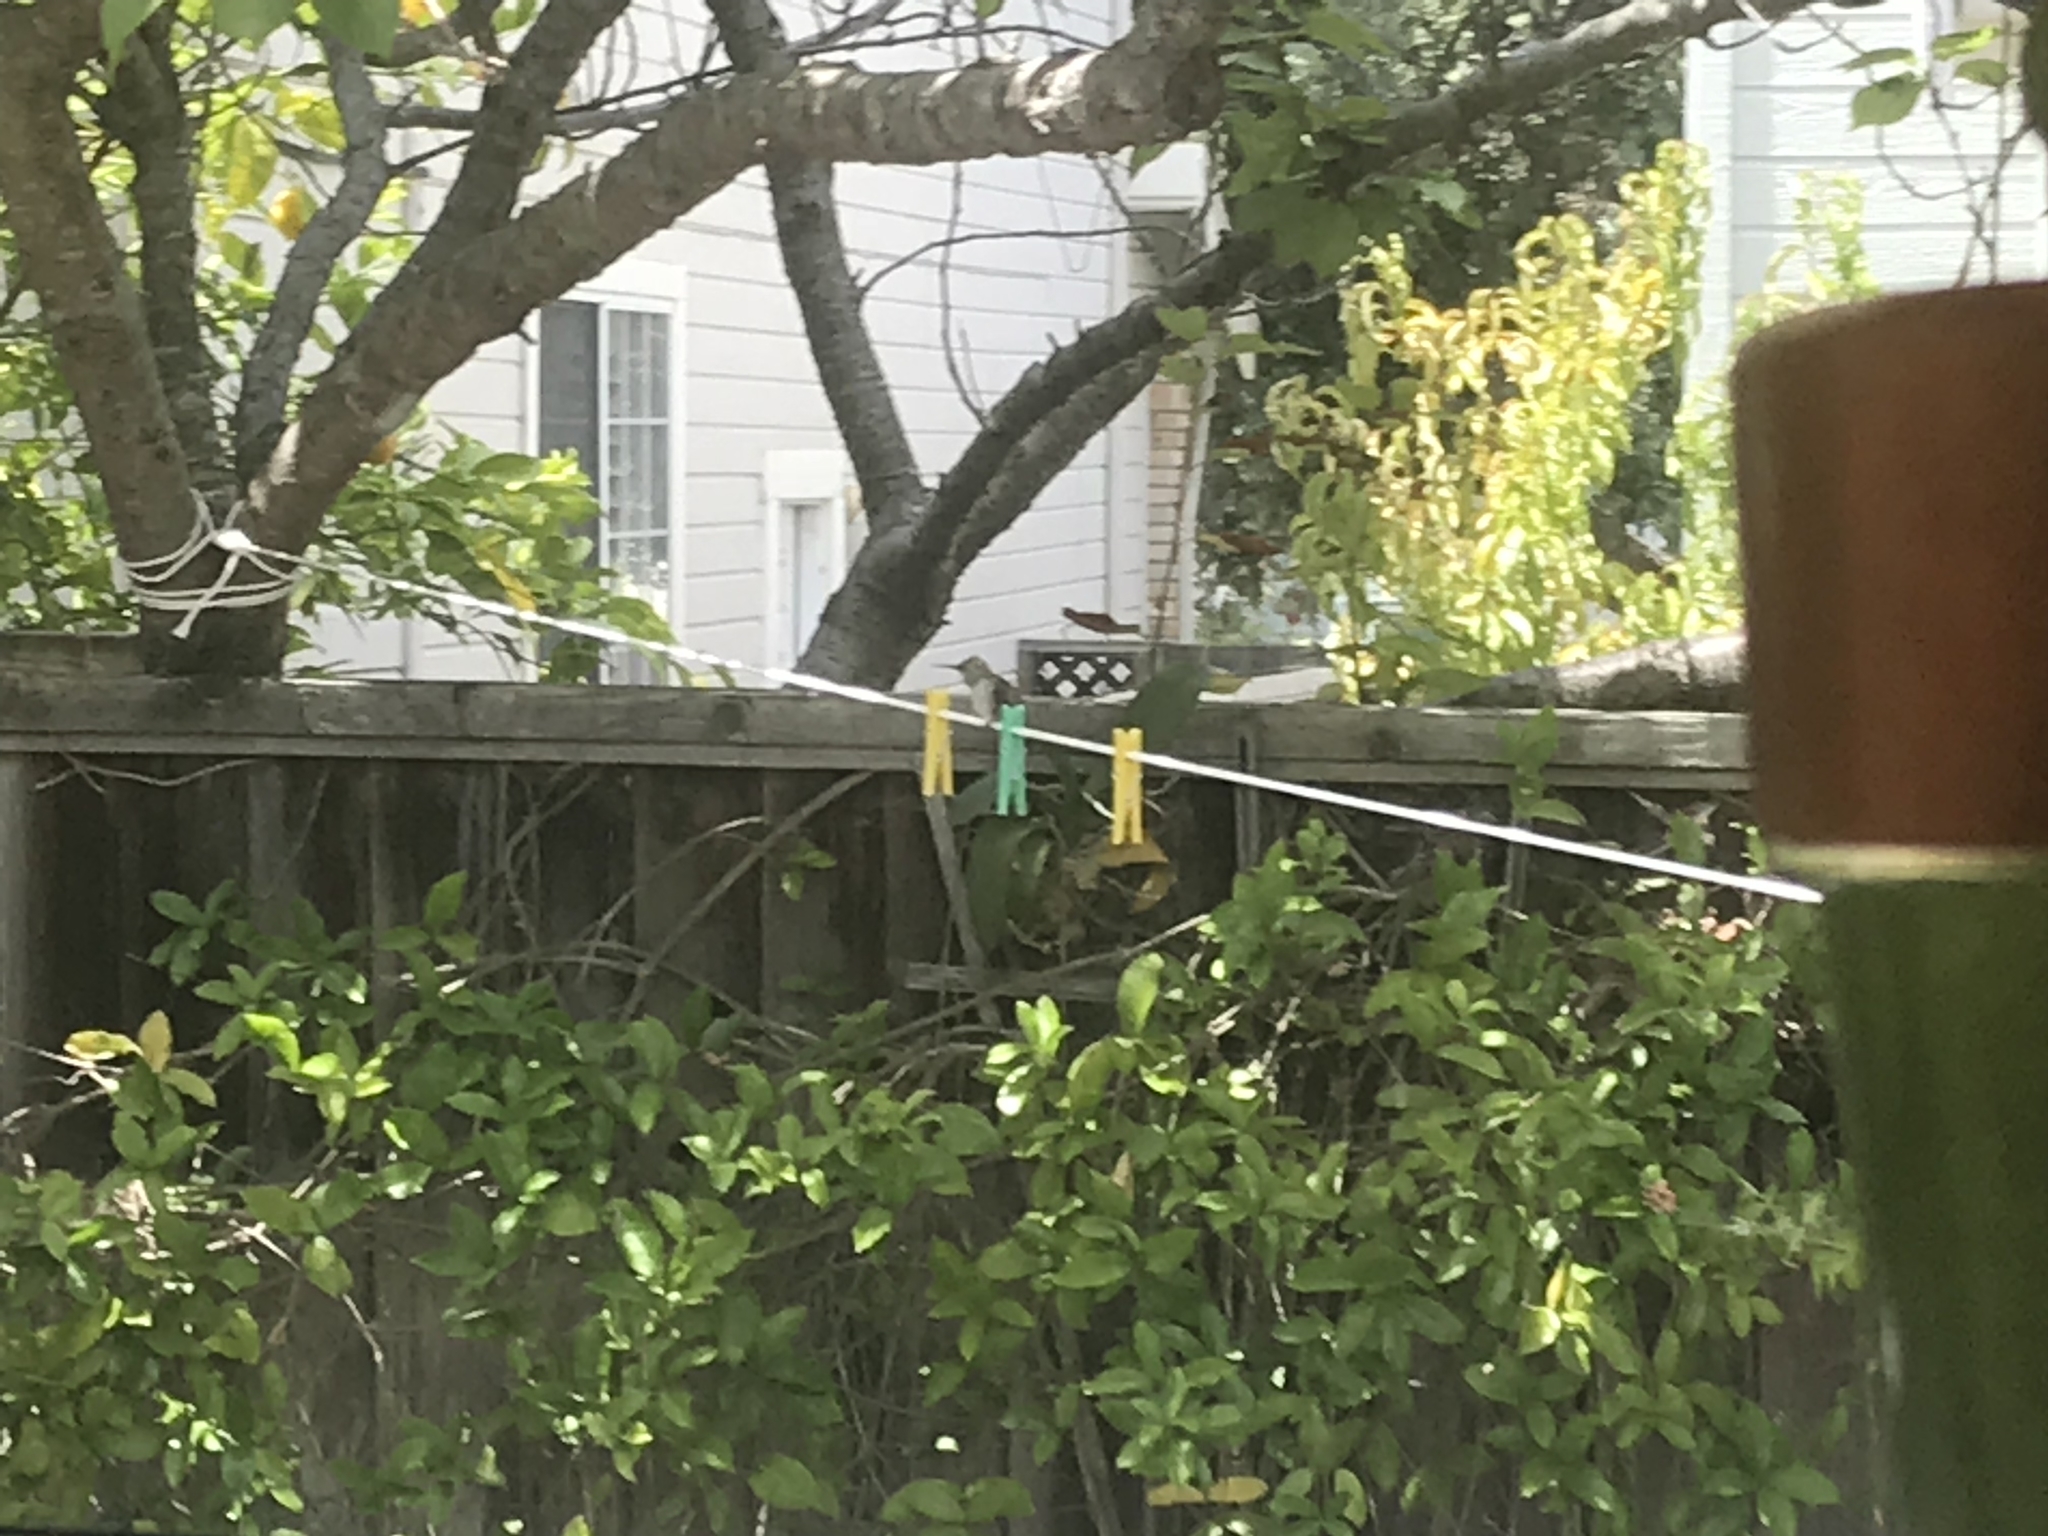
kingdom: Animalia
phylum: Chordata
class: Aves
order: Apodiformes
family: Trochilidae
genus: Calypte
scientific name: Calypte anna
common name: Anna's hummingbird
